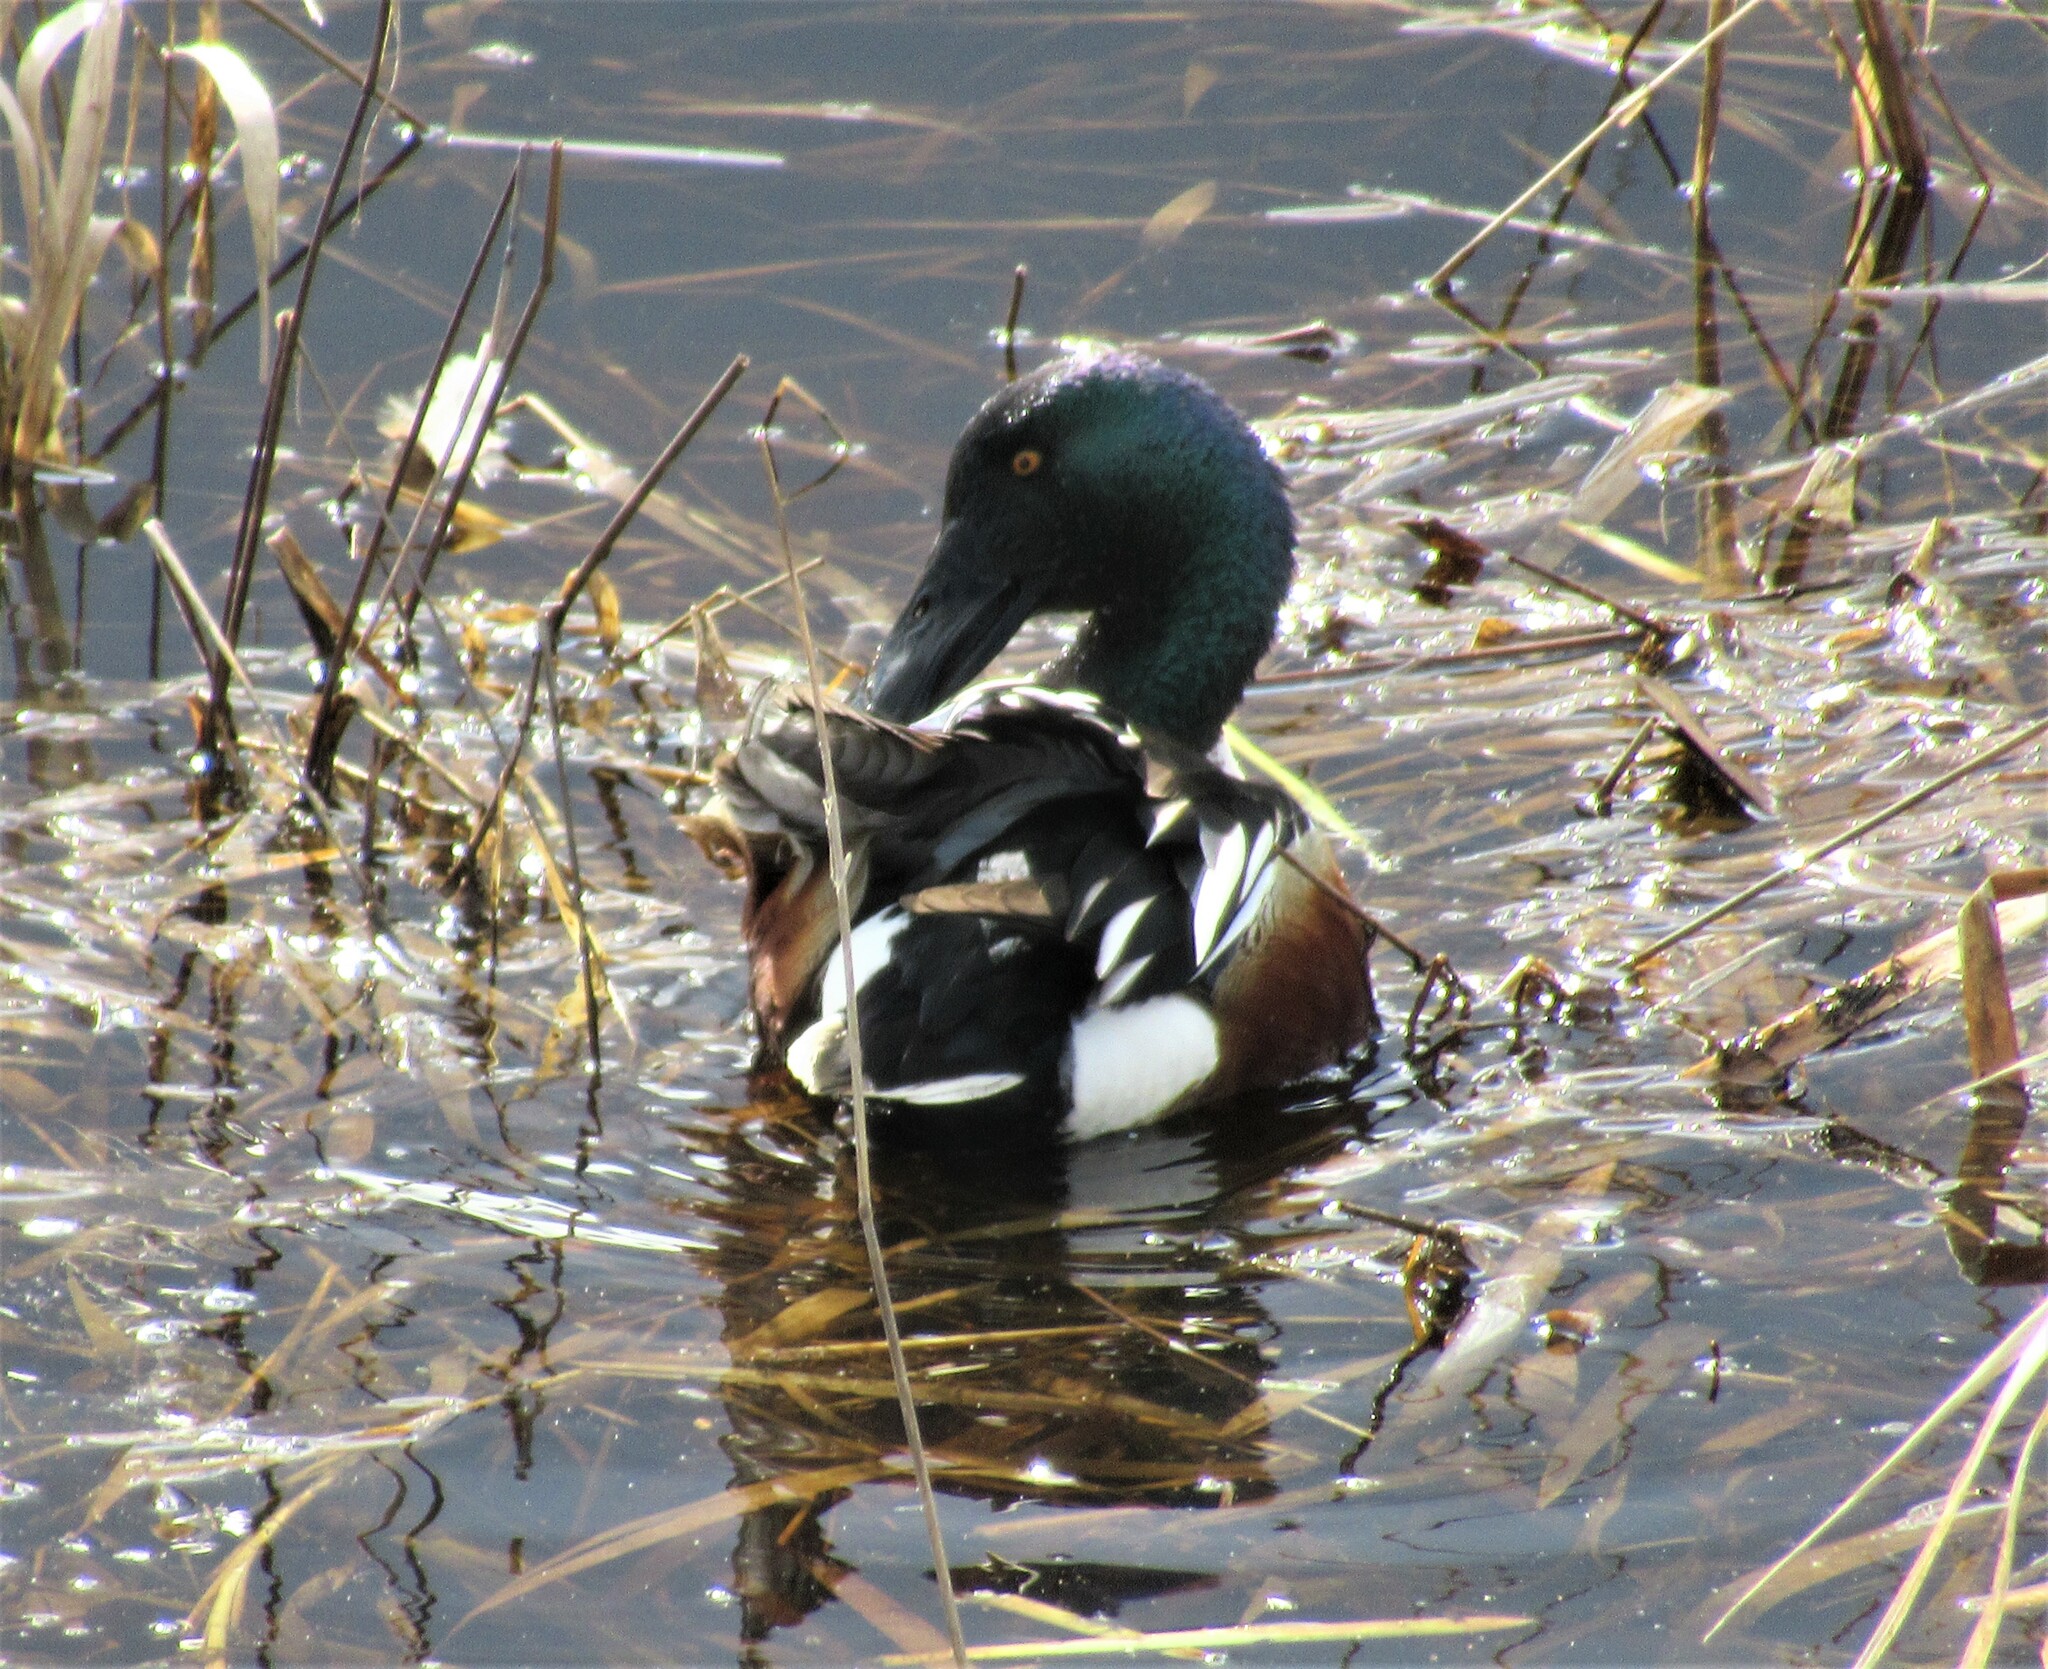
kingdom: Animalia
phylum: Chordata
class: Aves
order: Anseriformes
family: Anatidae
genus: Spatula
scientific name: Spatula clypeata
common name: Northern shoveler
